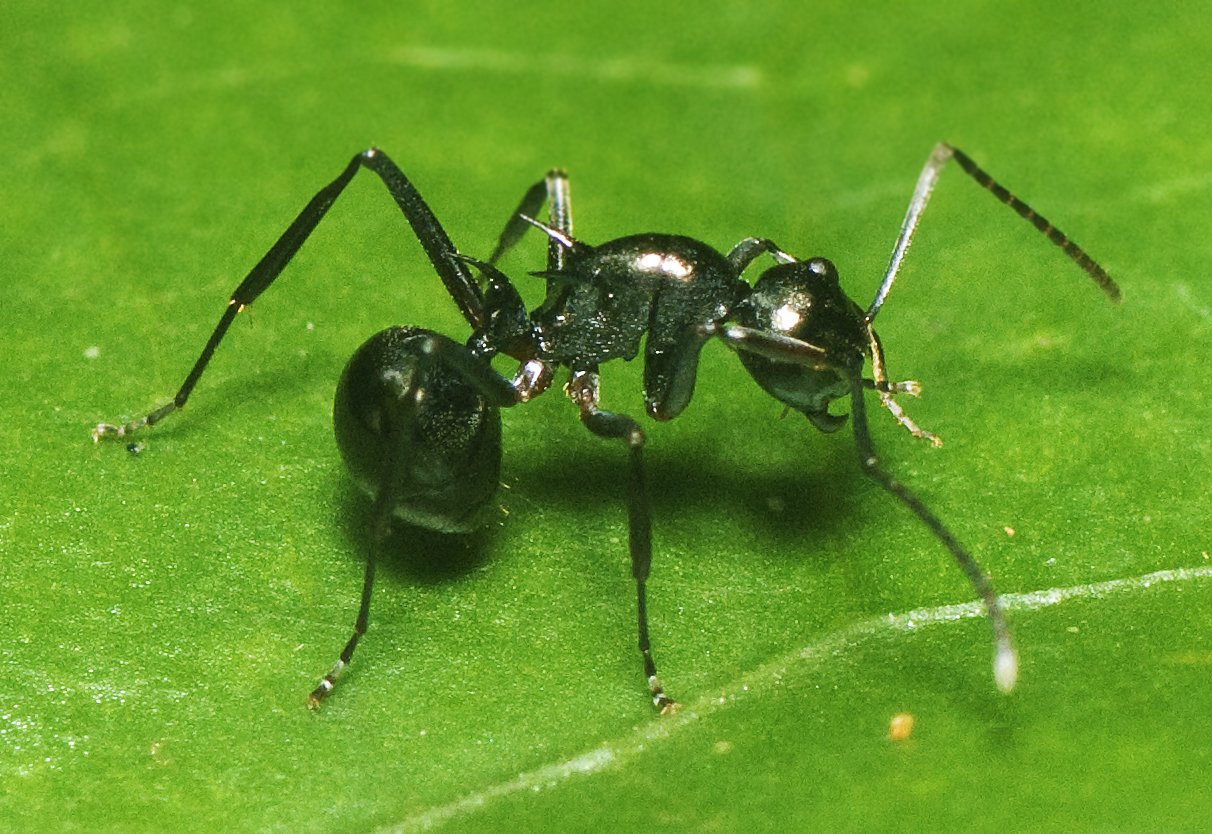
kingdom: Animalia
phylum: Arthropoda
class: Insecta
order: Hymenoptera
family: Formicidae
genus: Polyrhachis
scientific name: Polyrhachis mucronata
